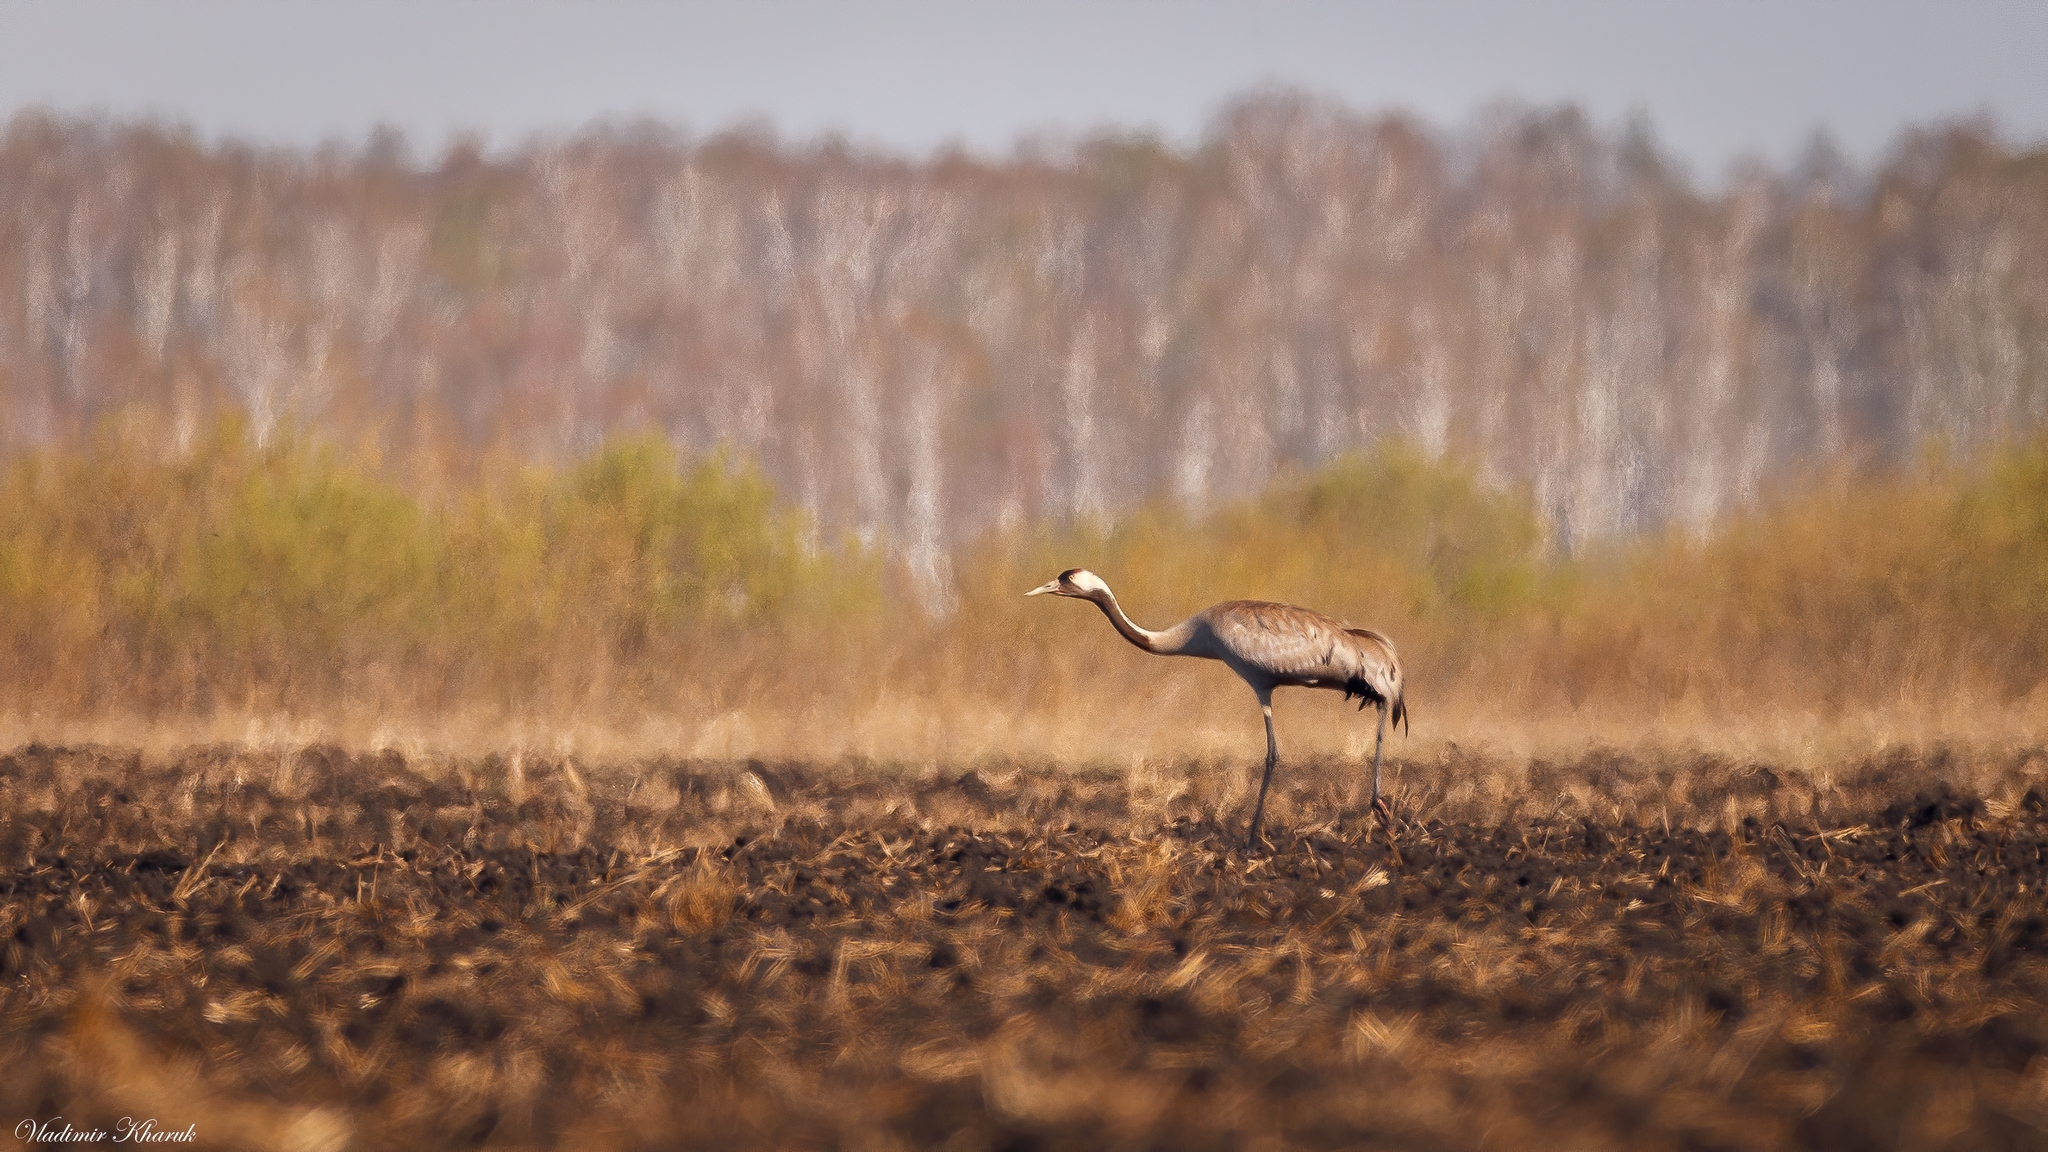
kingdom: Animalia
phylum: Chordata
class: Aves
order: Gruiformes
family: Gruidae
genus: Grus
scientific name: Grus grus
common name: Common crane
